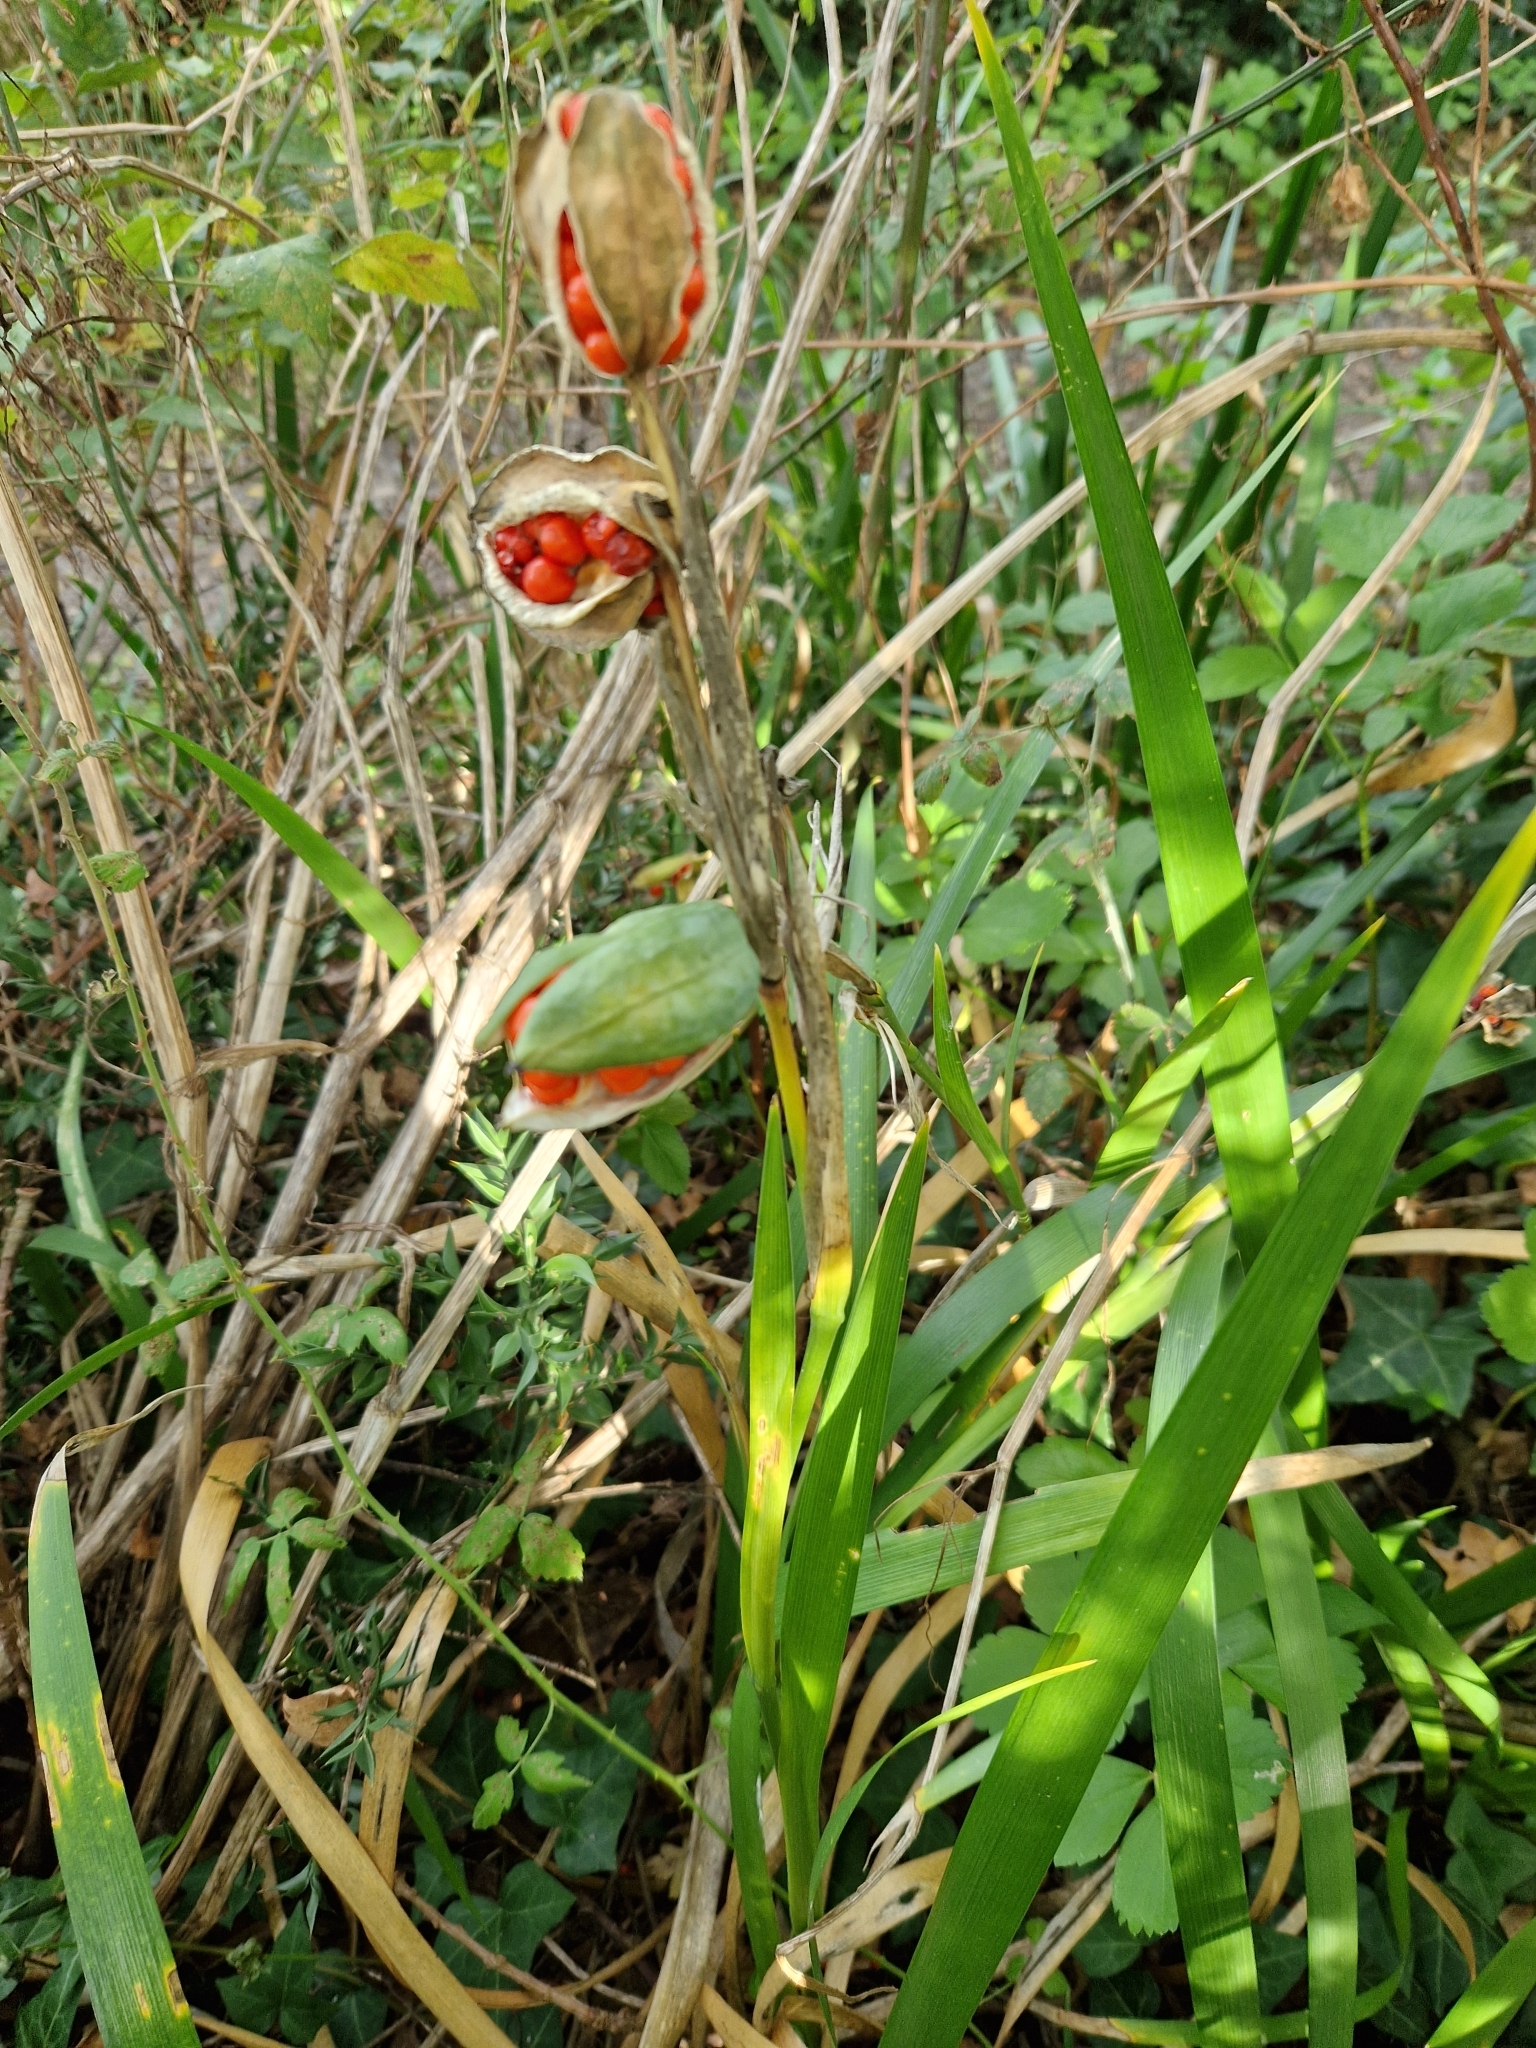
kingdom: Plantae
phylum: Tracheophyta
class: Liliopsida
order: Asparagales
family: Iridaceae
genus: Iris
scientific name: Iris foetidissima
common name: Stinking iris
